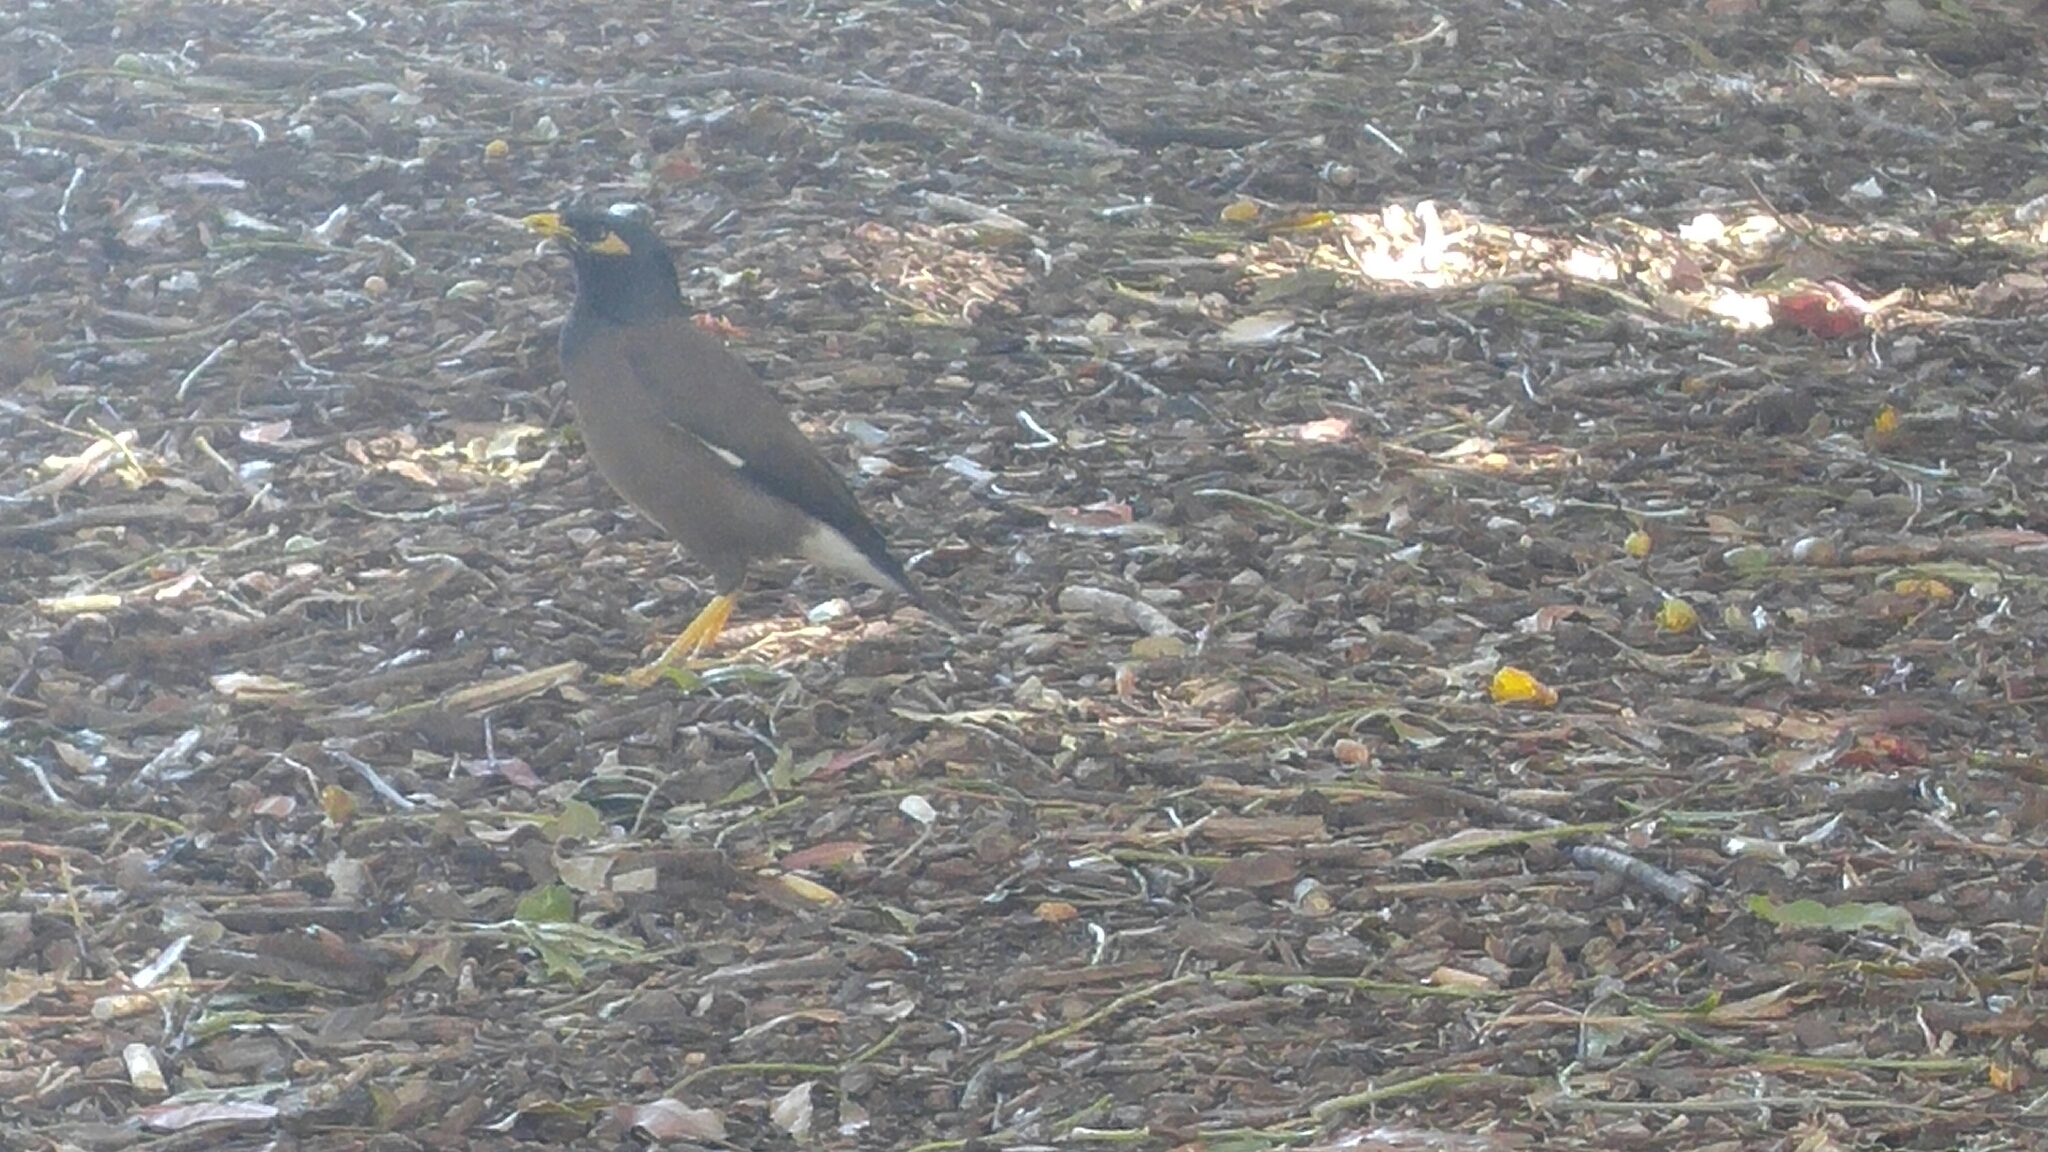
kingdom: Animalia
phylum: Chordata
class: Aves
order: Passeriformes
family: Sturnidae
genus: Acridotheres
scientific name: Acridotheres tristis
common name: Common myna
